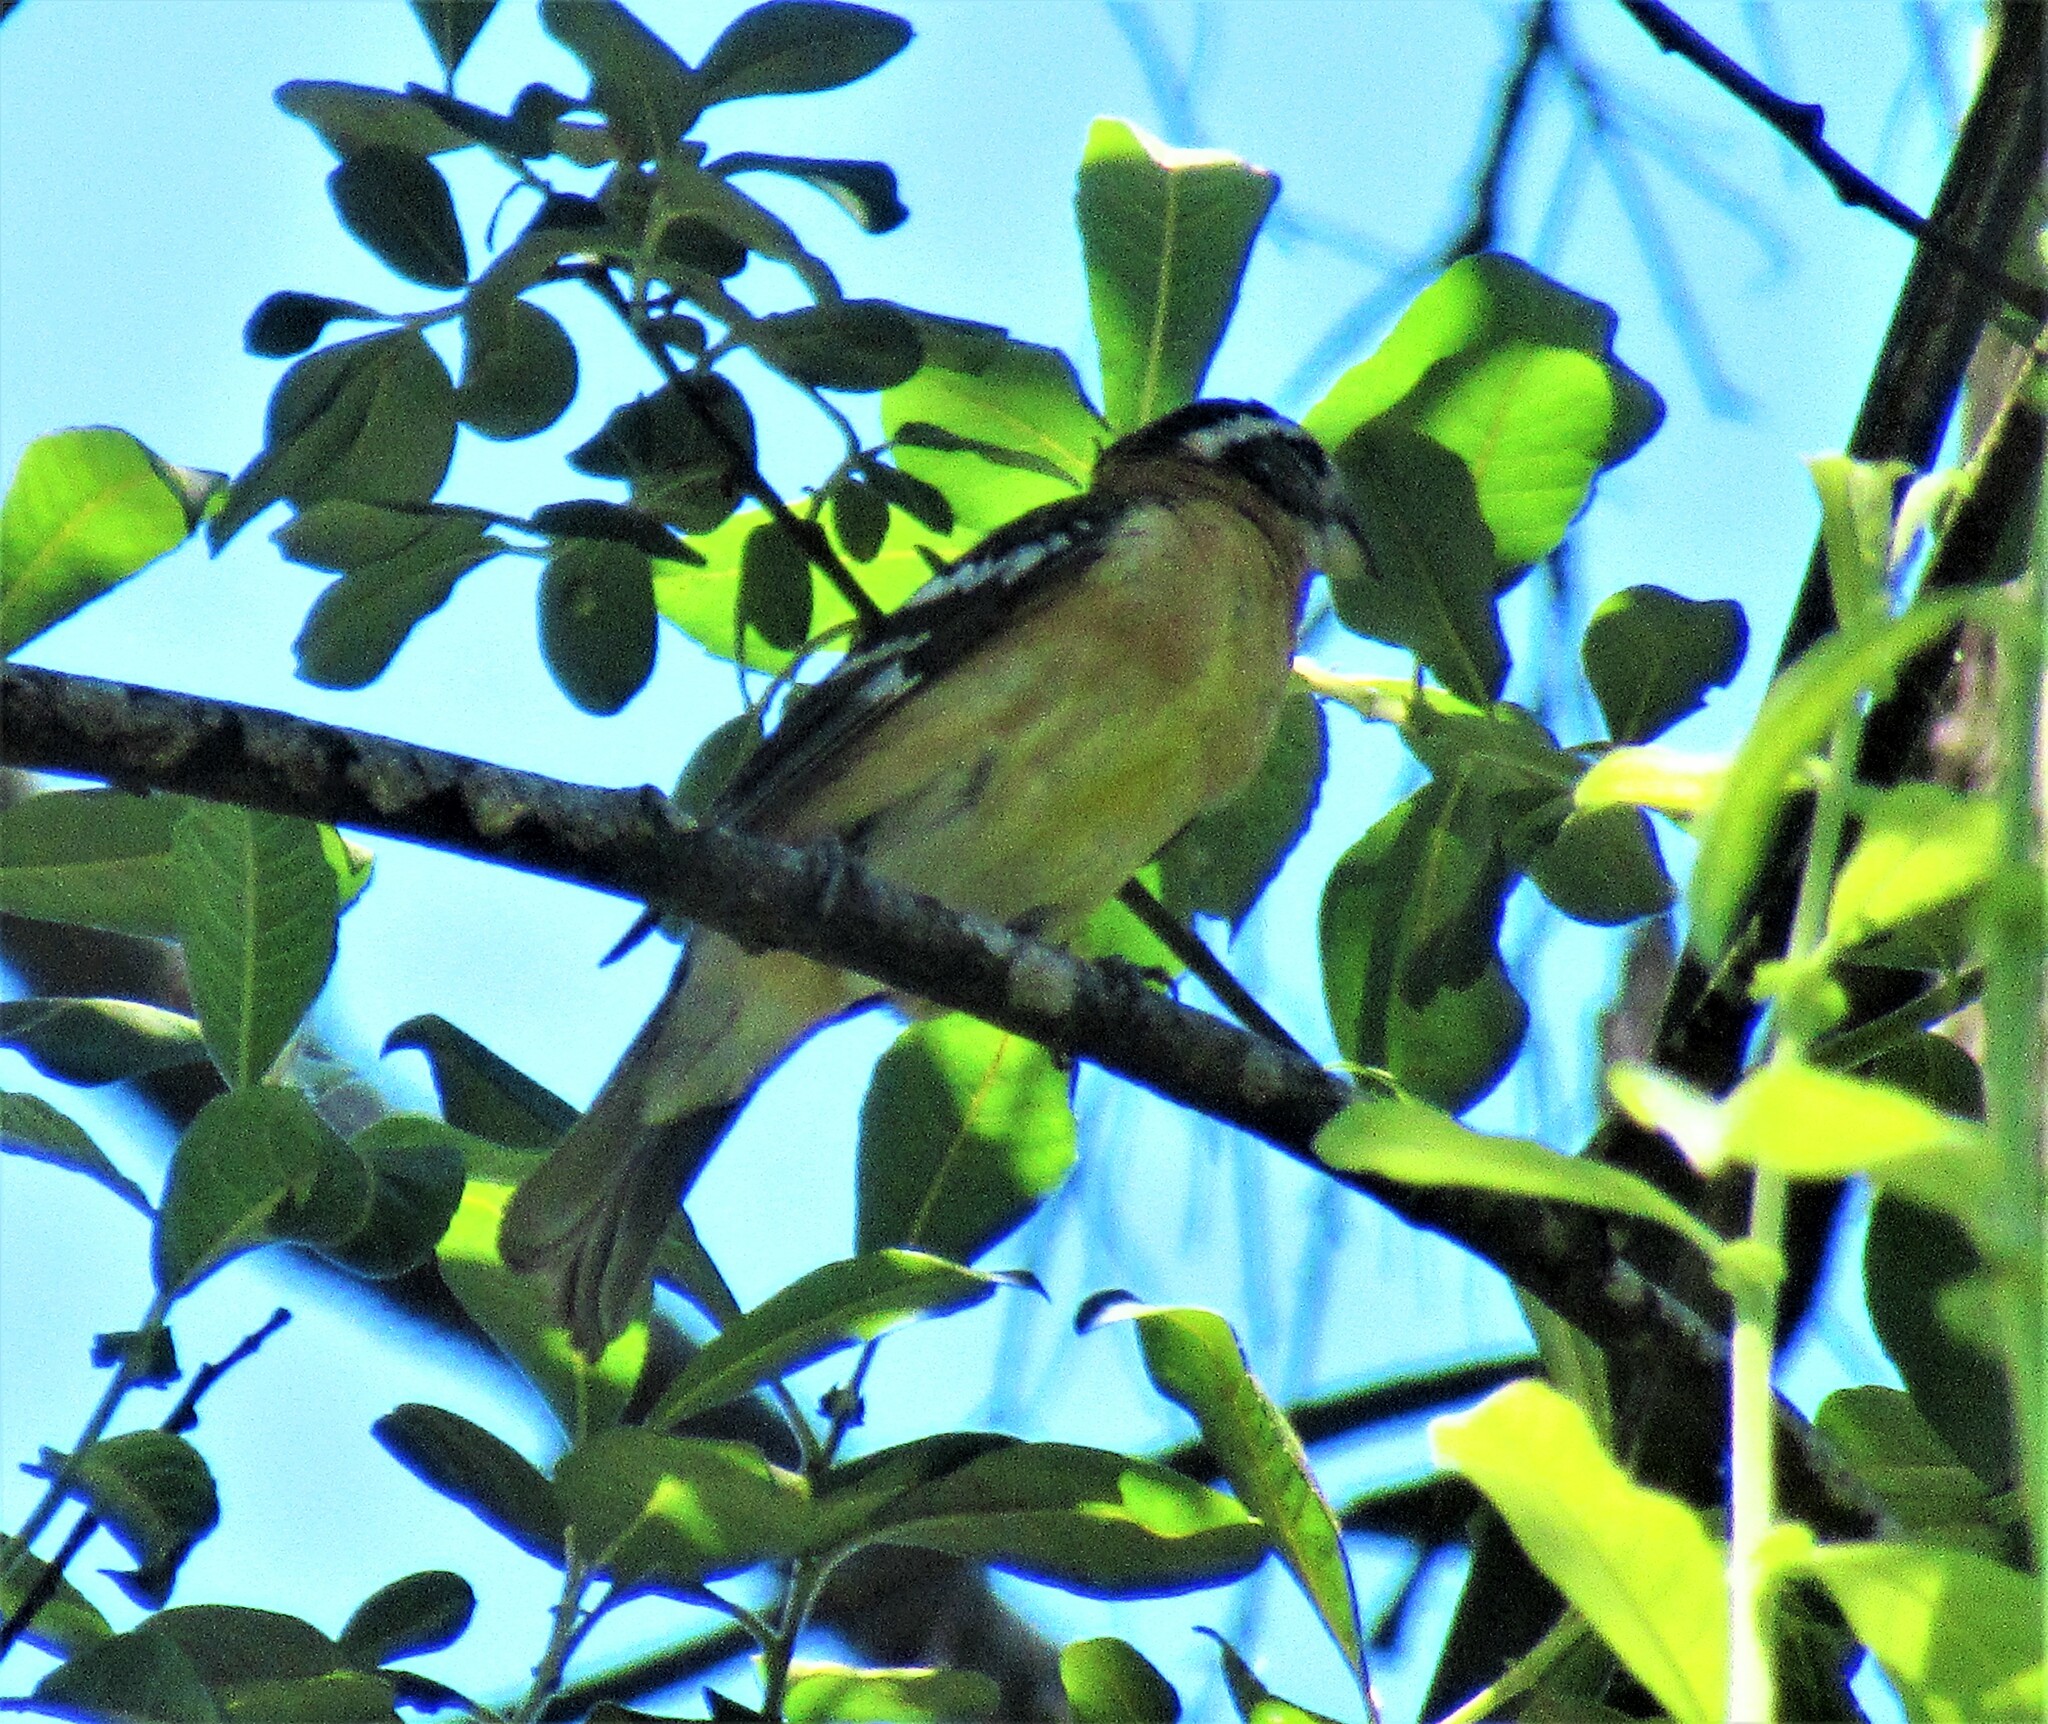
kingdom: Animalia
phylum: Chordata
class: Aves
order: Passeriformes
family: Cardinalidae
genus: Pheucticus
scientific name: Pheucticus melanocephalus
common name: Black-headed grosbeak
